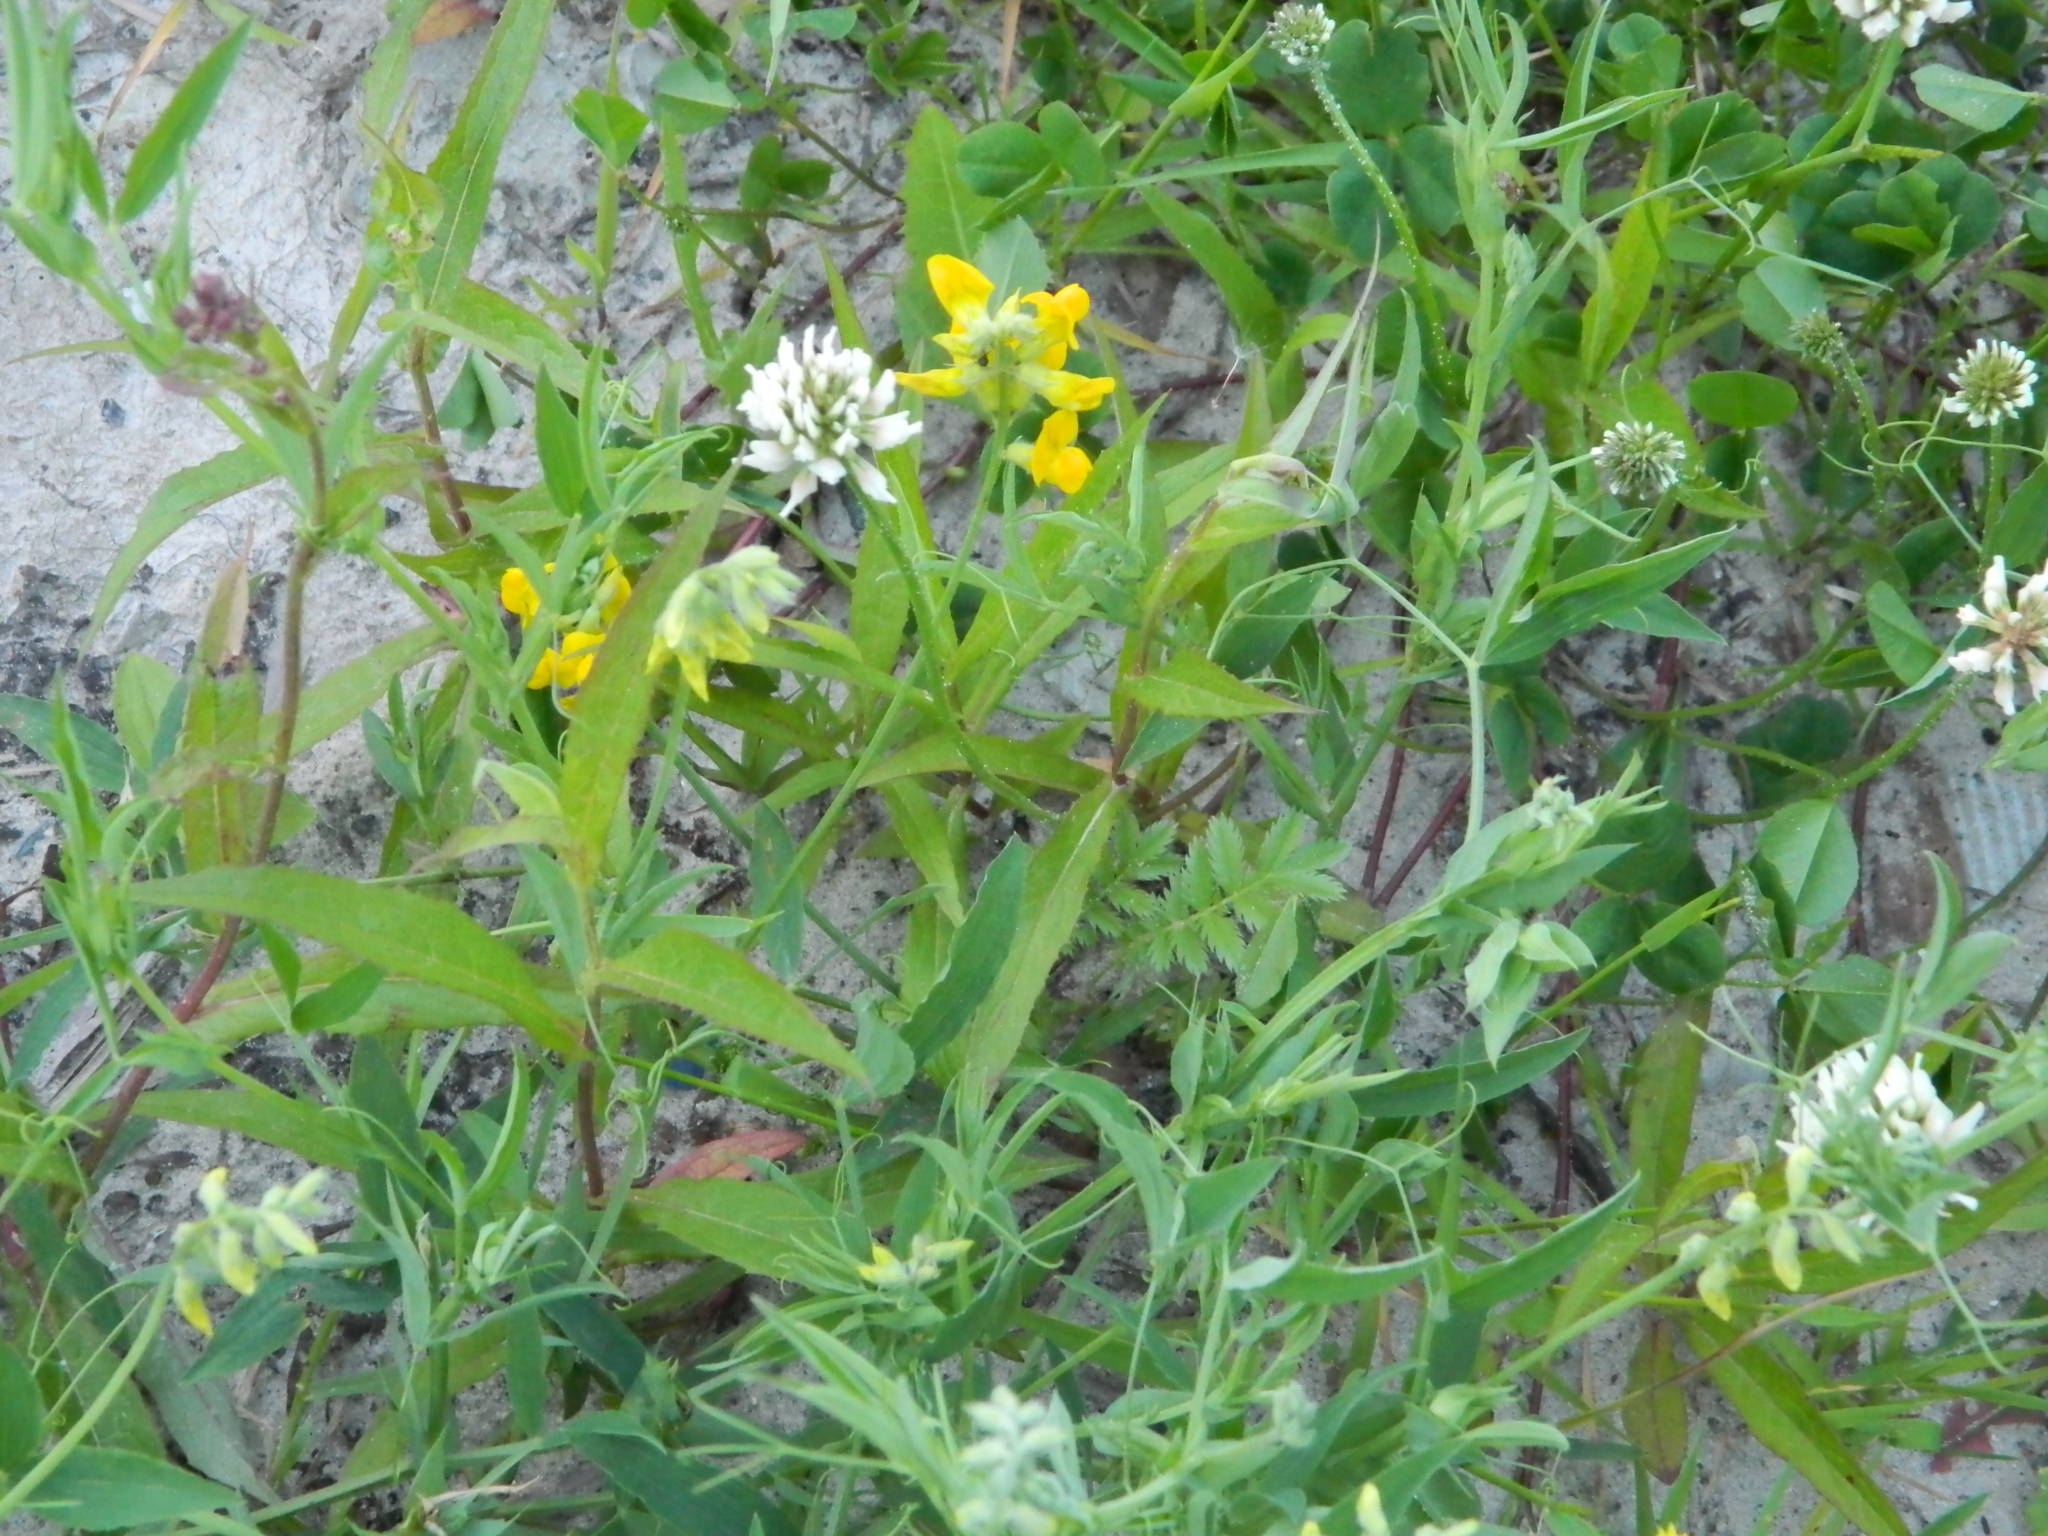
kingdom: Plantae
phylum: Tracheophyta
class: Magnoliopsida
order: Fabales
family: Fabaceae
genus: Lathyrus
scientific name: Lathyrus pratensis
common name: Meadow vetchling
